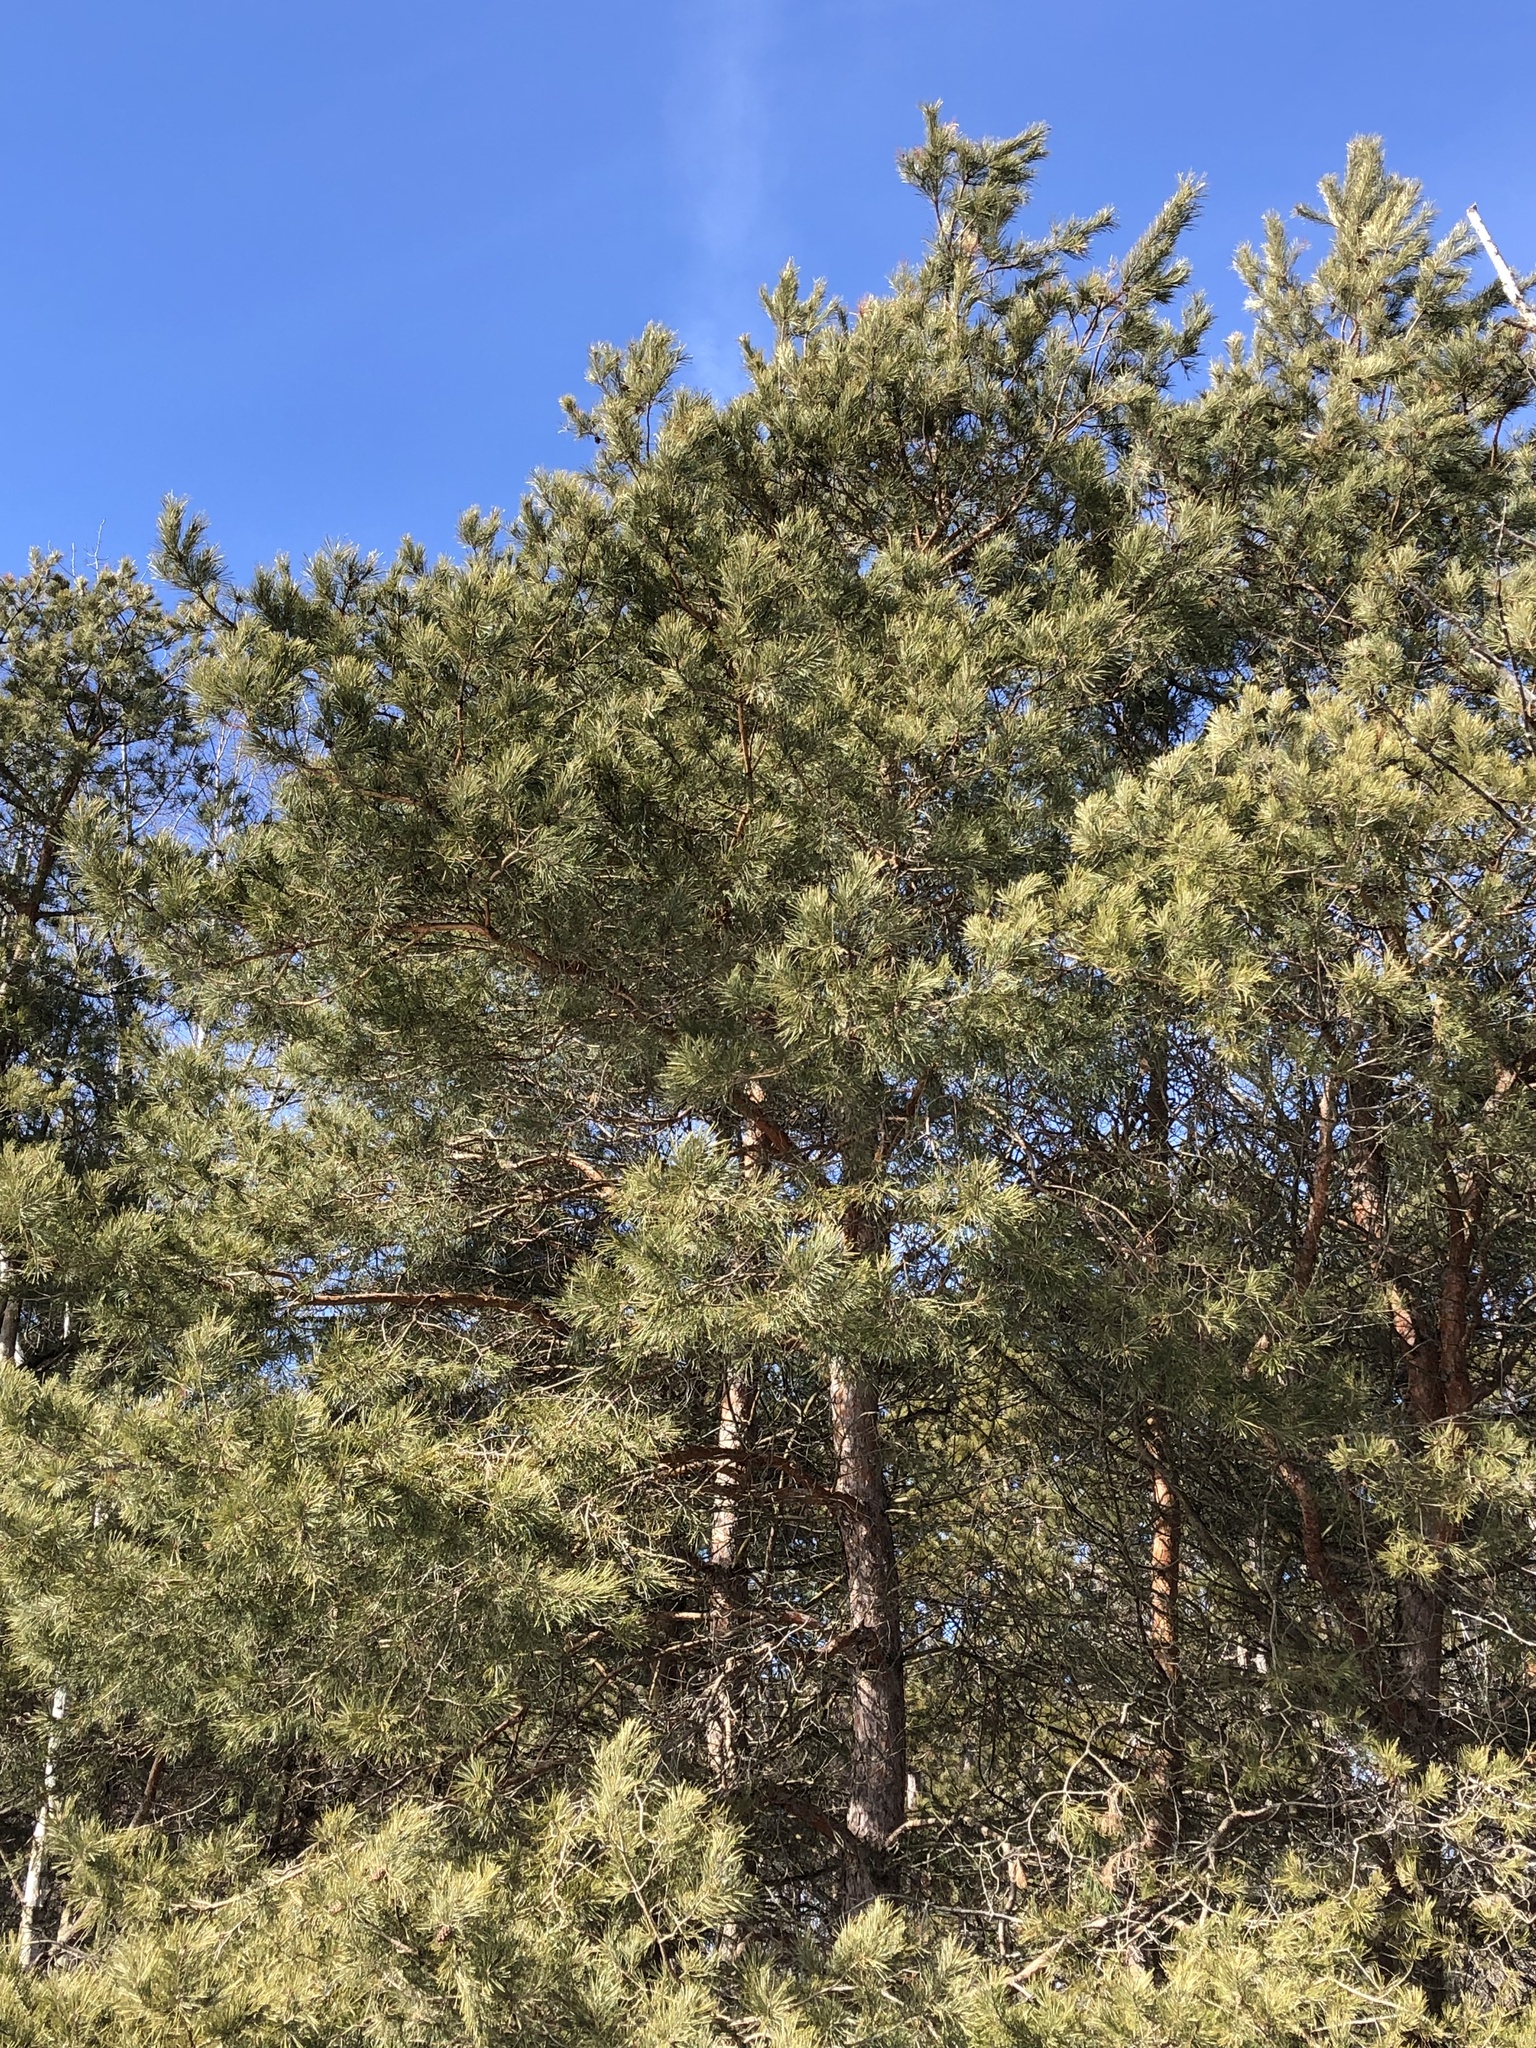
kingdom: Plantae
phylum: Tracheophyta
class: Pinopsida
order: Pinales
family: Pinaceae
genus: Pinus
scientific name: Pinus sylvestris
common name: Scots pine
